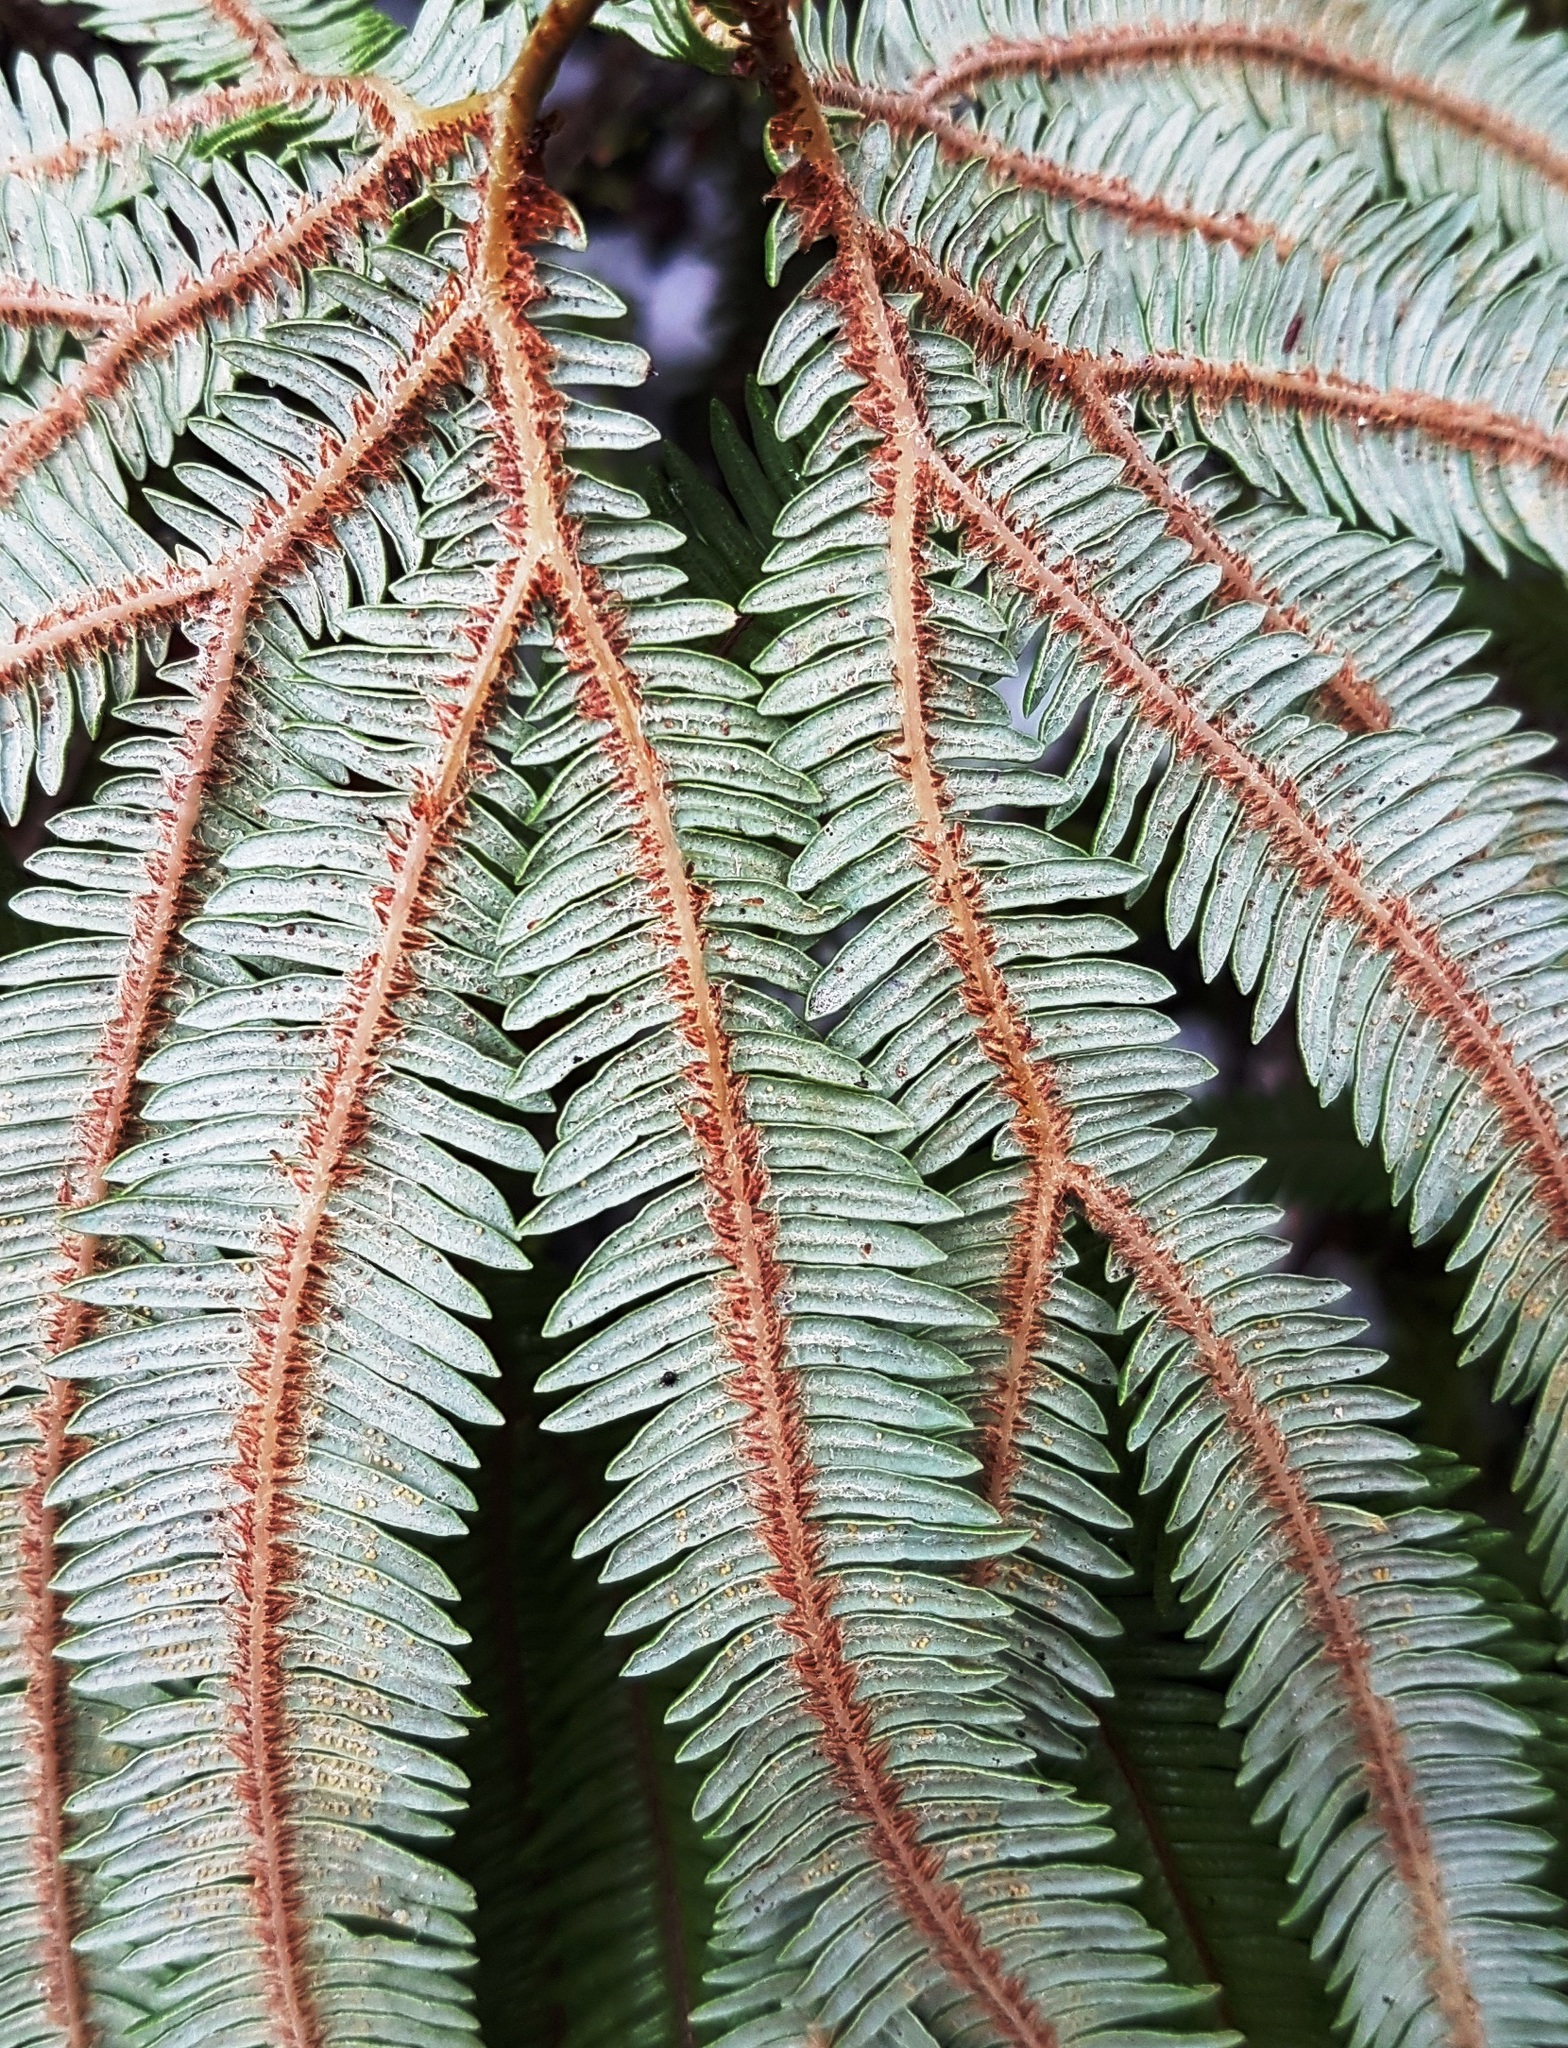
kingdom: Plantae
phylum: Tracheophyta
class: Polypodiopsida
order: Gleicheniales
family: Gleicheniaceae
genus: Sticherus
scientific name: Sticherus cunninghamii
